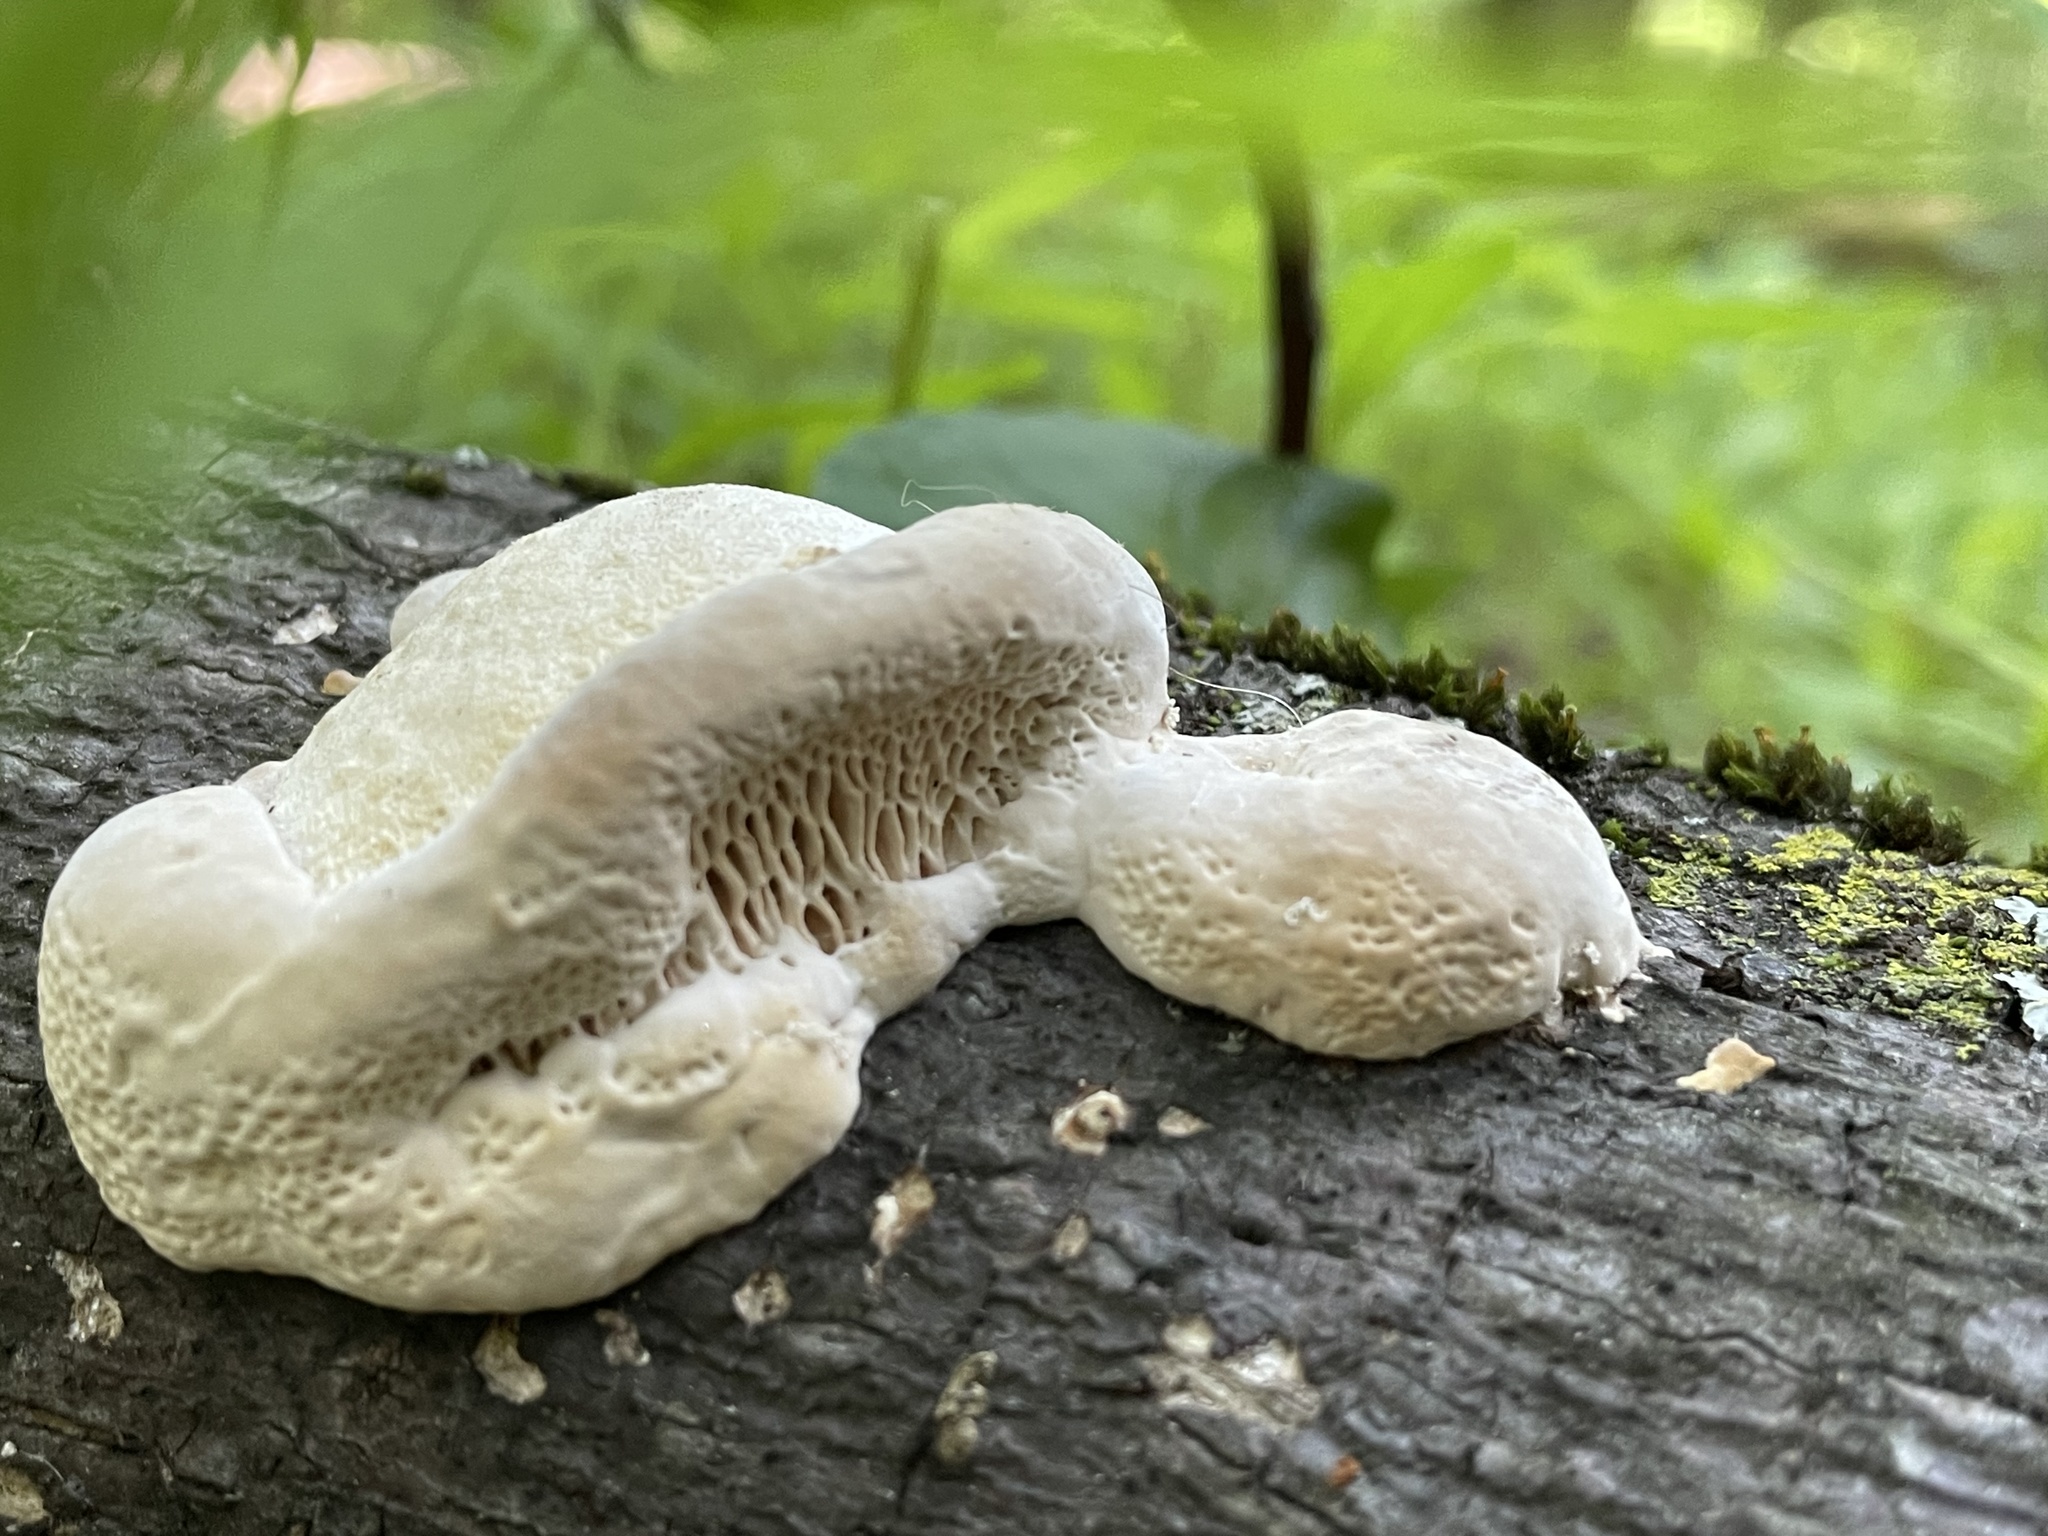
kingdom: Fungi
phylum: Basidiomycota
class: Agaricomycetes
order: Polyporales
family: Polyporaceae
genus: Trametes
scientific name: Trametes gibbosa
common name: Lumpy bracket
